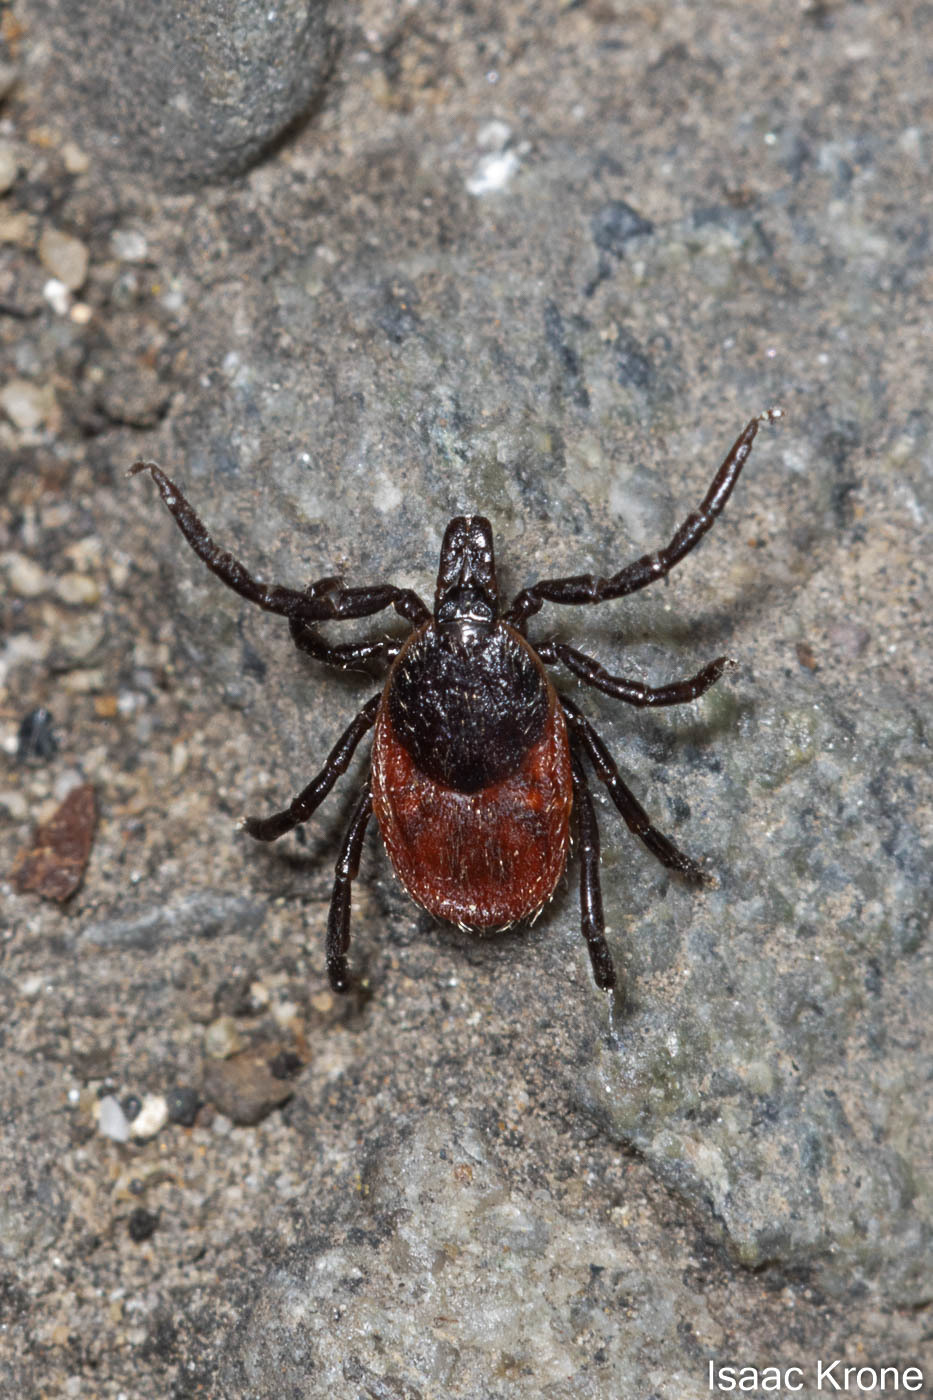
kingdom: Animalia
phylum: Arthropoda
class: Arachnida
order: Ixodida
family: Ixodidae
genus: Ixodes
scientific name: Ixodes pacificus
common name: California black-legged tick
